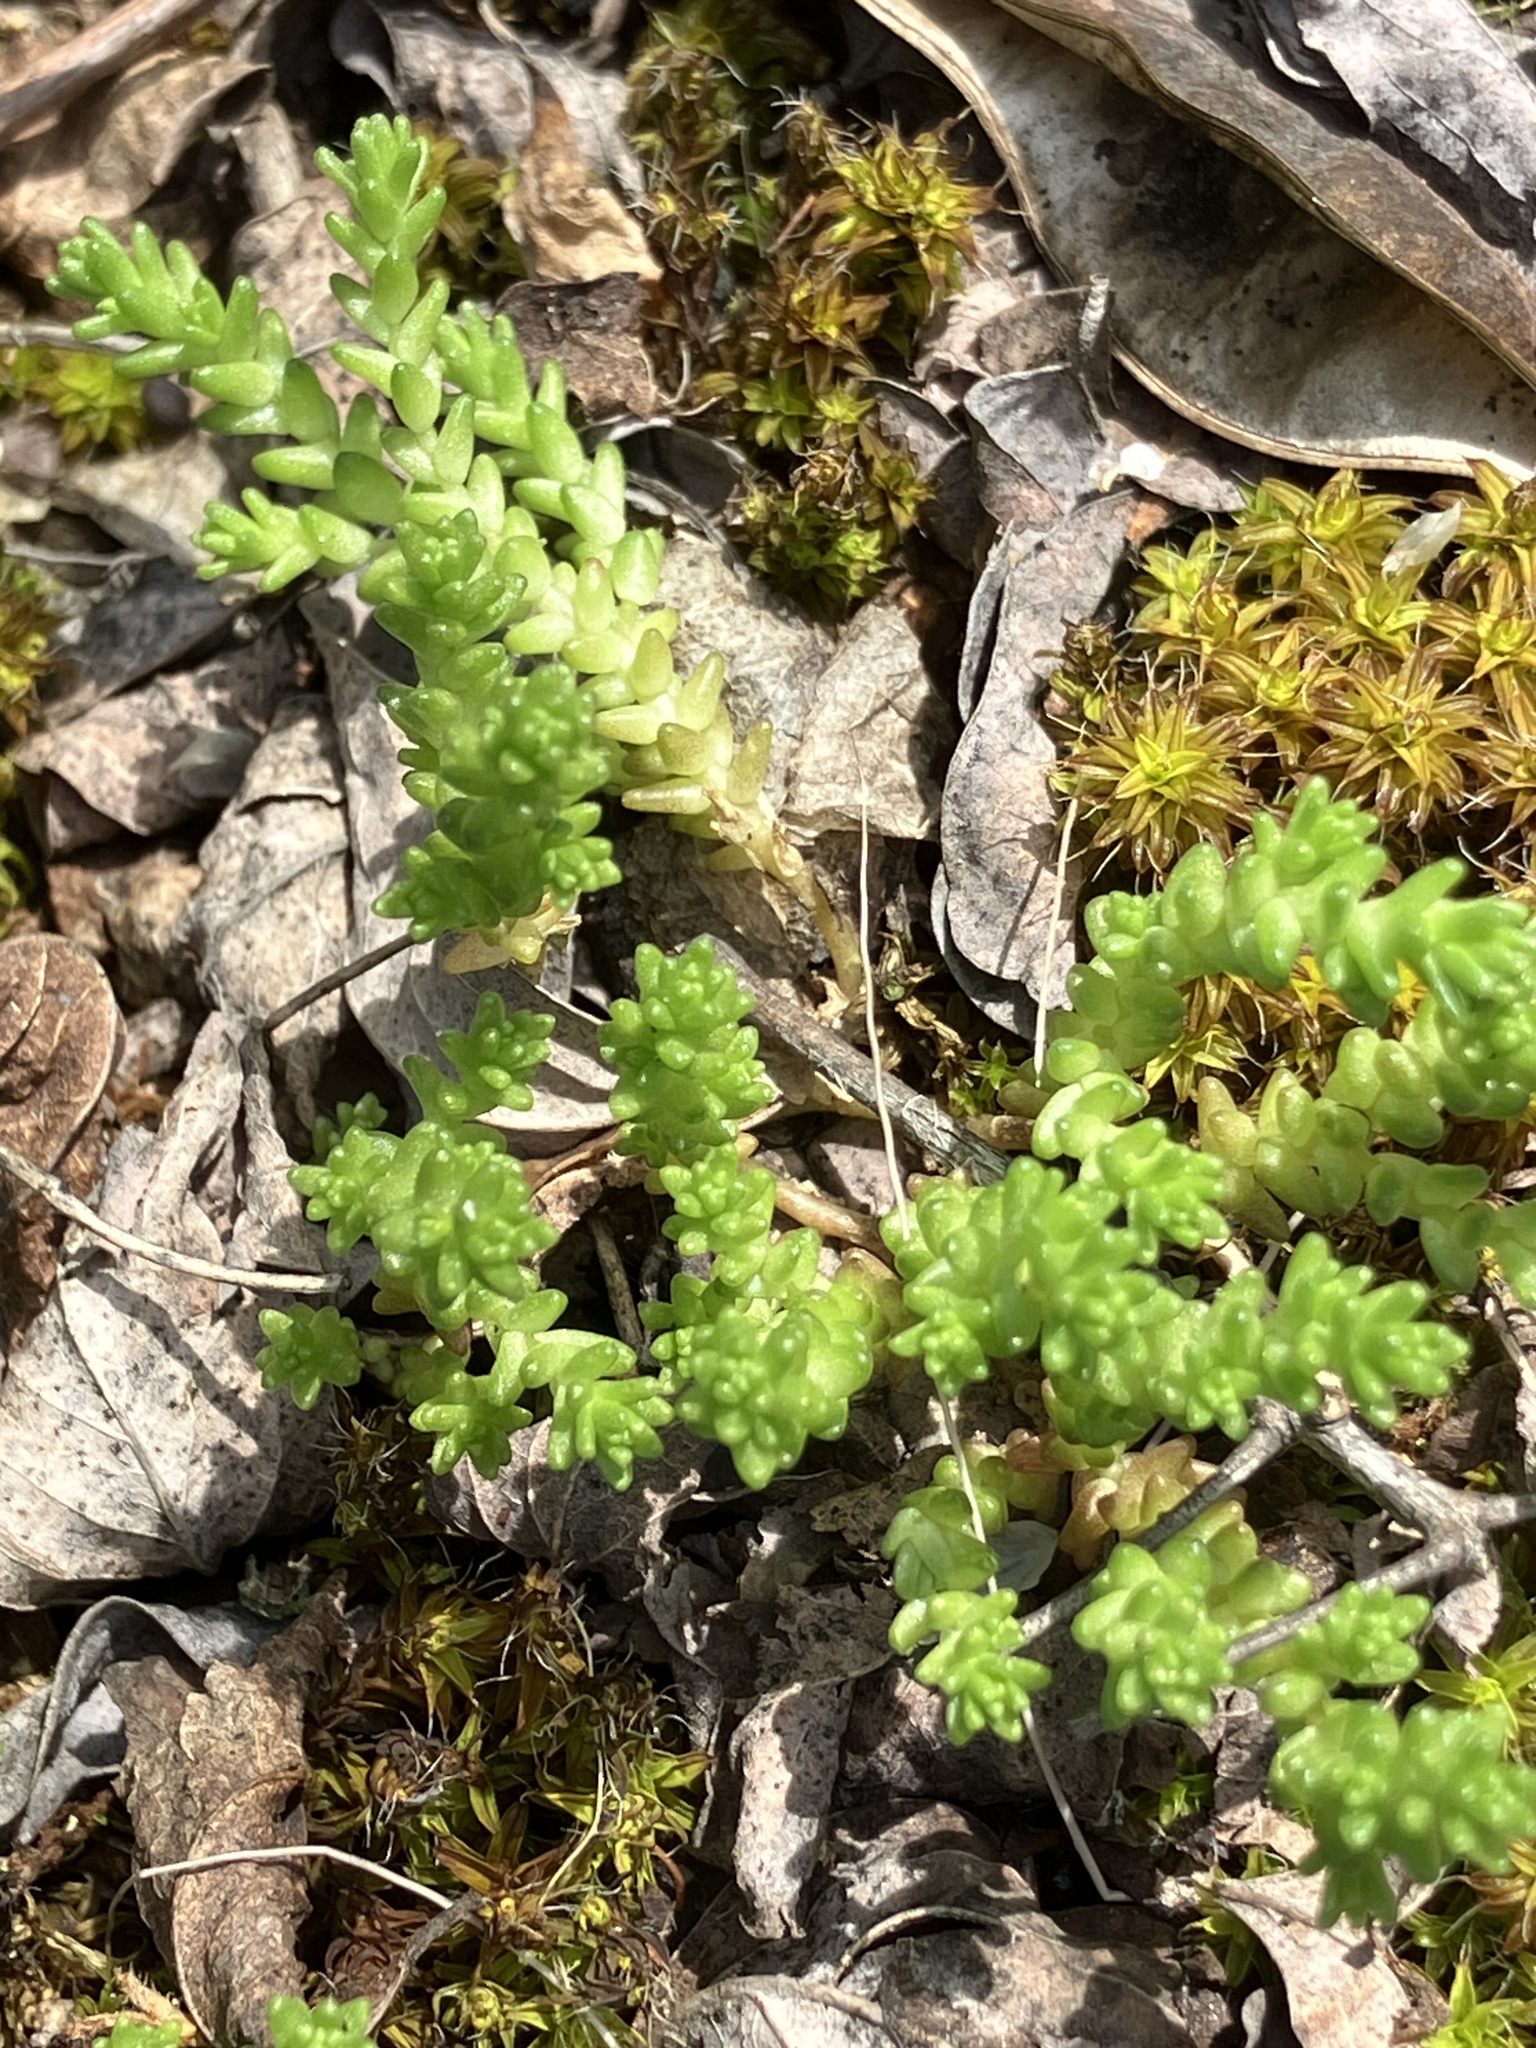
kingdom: Plantae
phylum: Tracheophyta
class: Magnoliopsida
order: Saxifragales
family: Crassulaceae
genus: Sedum
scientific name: Sedum acre
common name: Biting stonecrop
